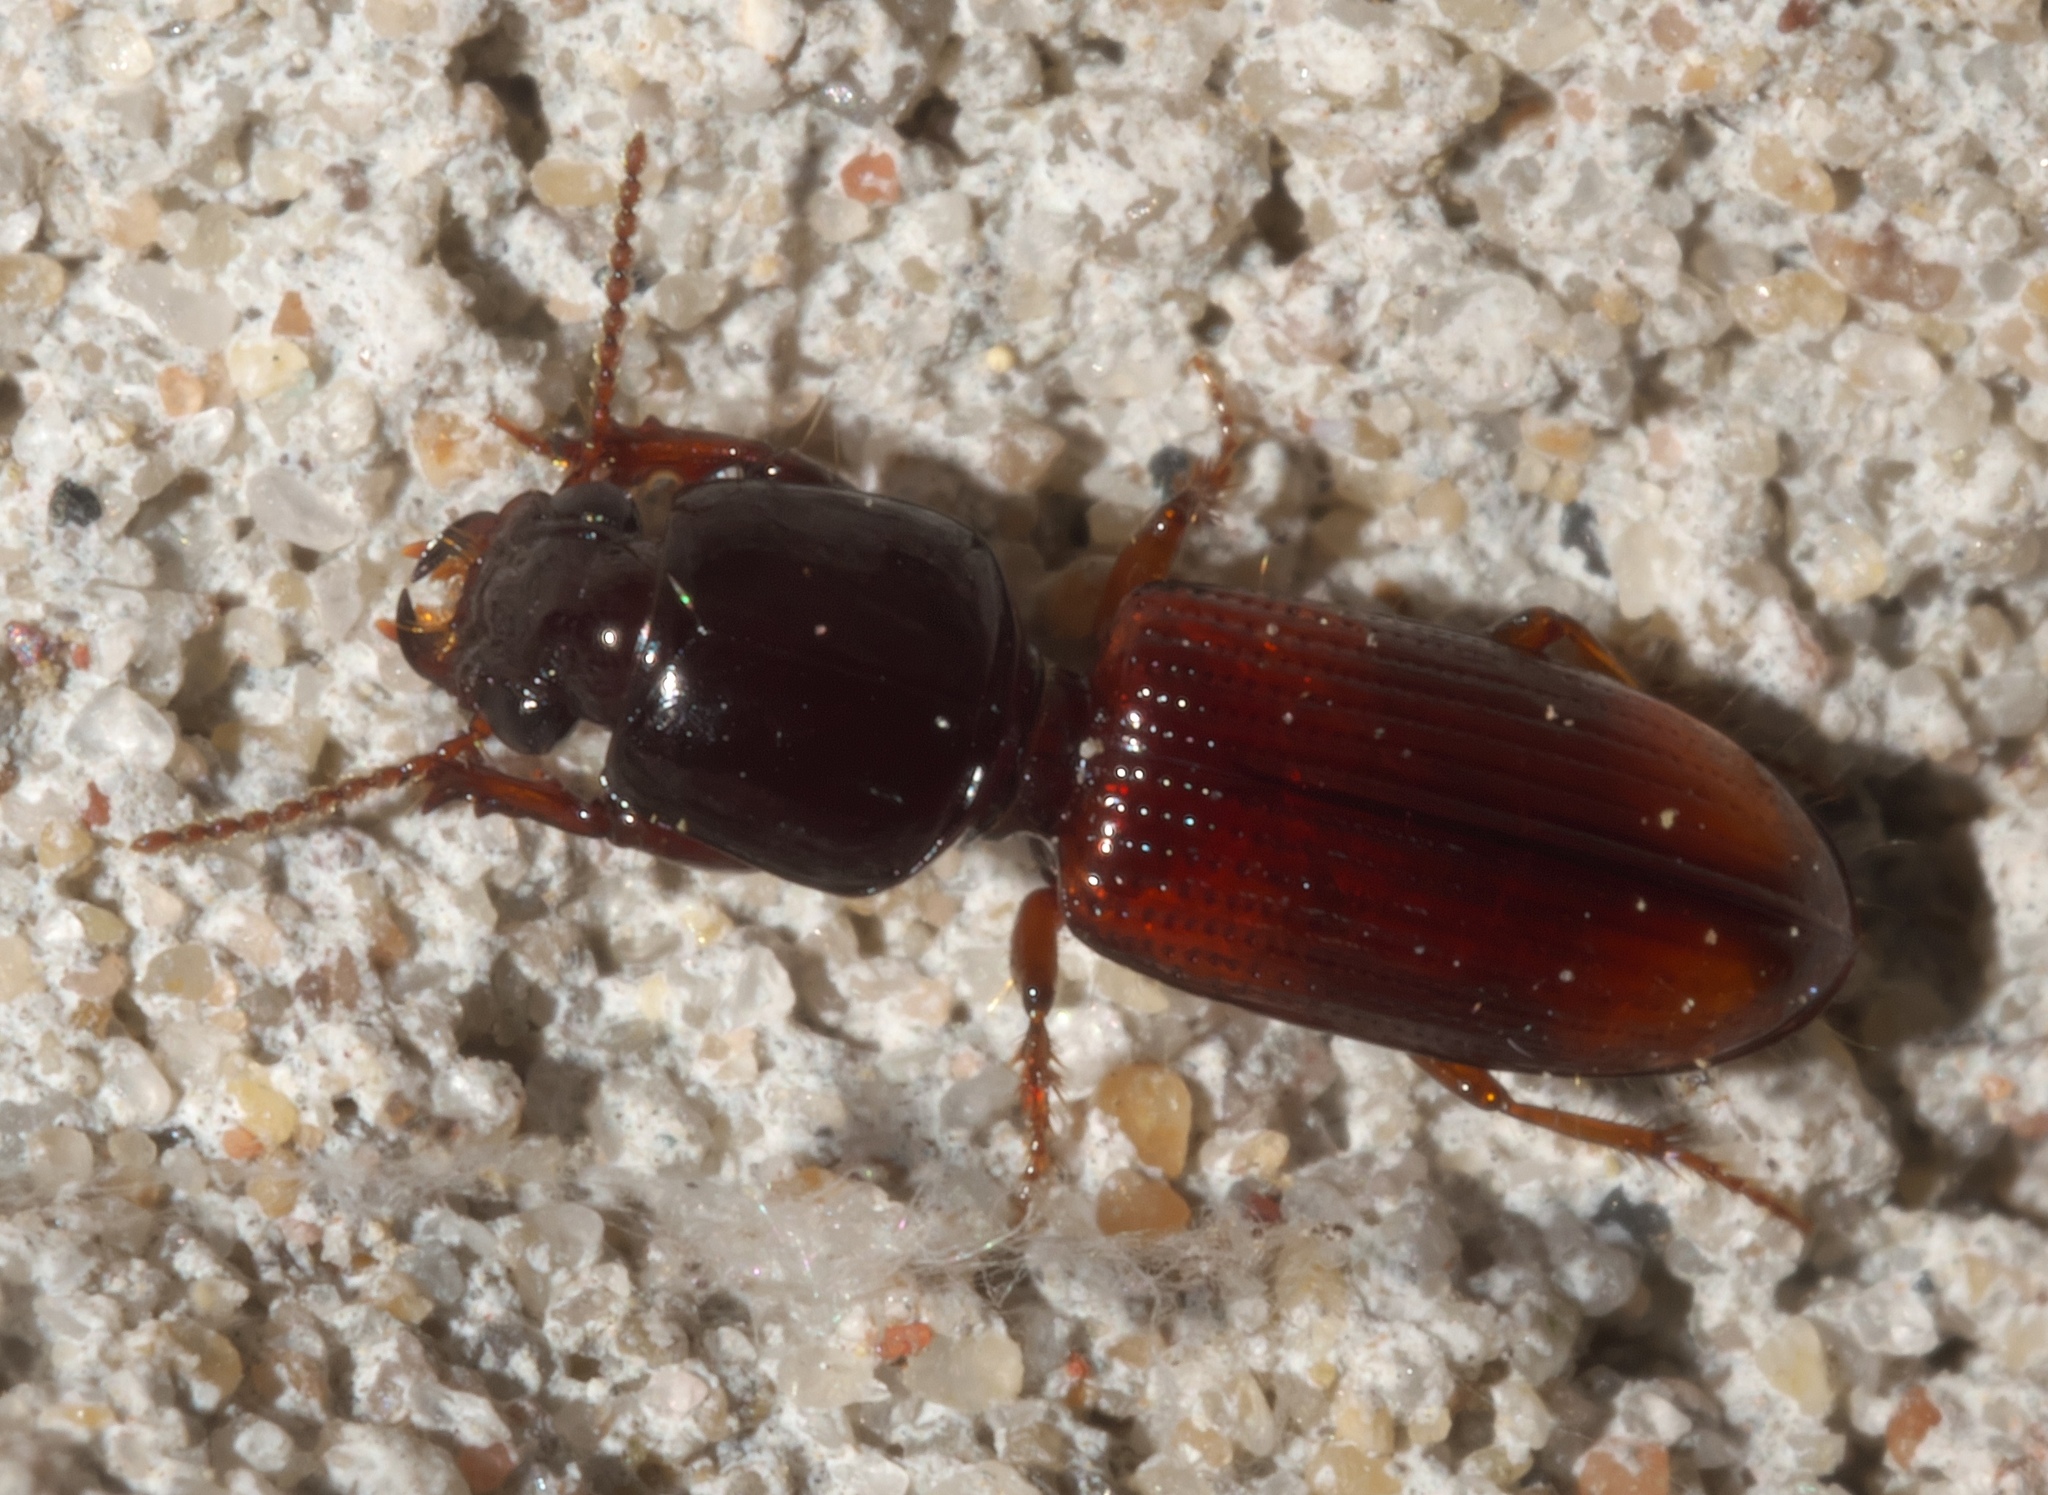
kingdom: Animalia
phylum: Arthropoda
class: Insecta
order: Coleoptera
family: Carabidae
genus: Clivina
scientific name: Clivina bipustulata
